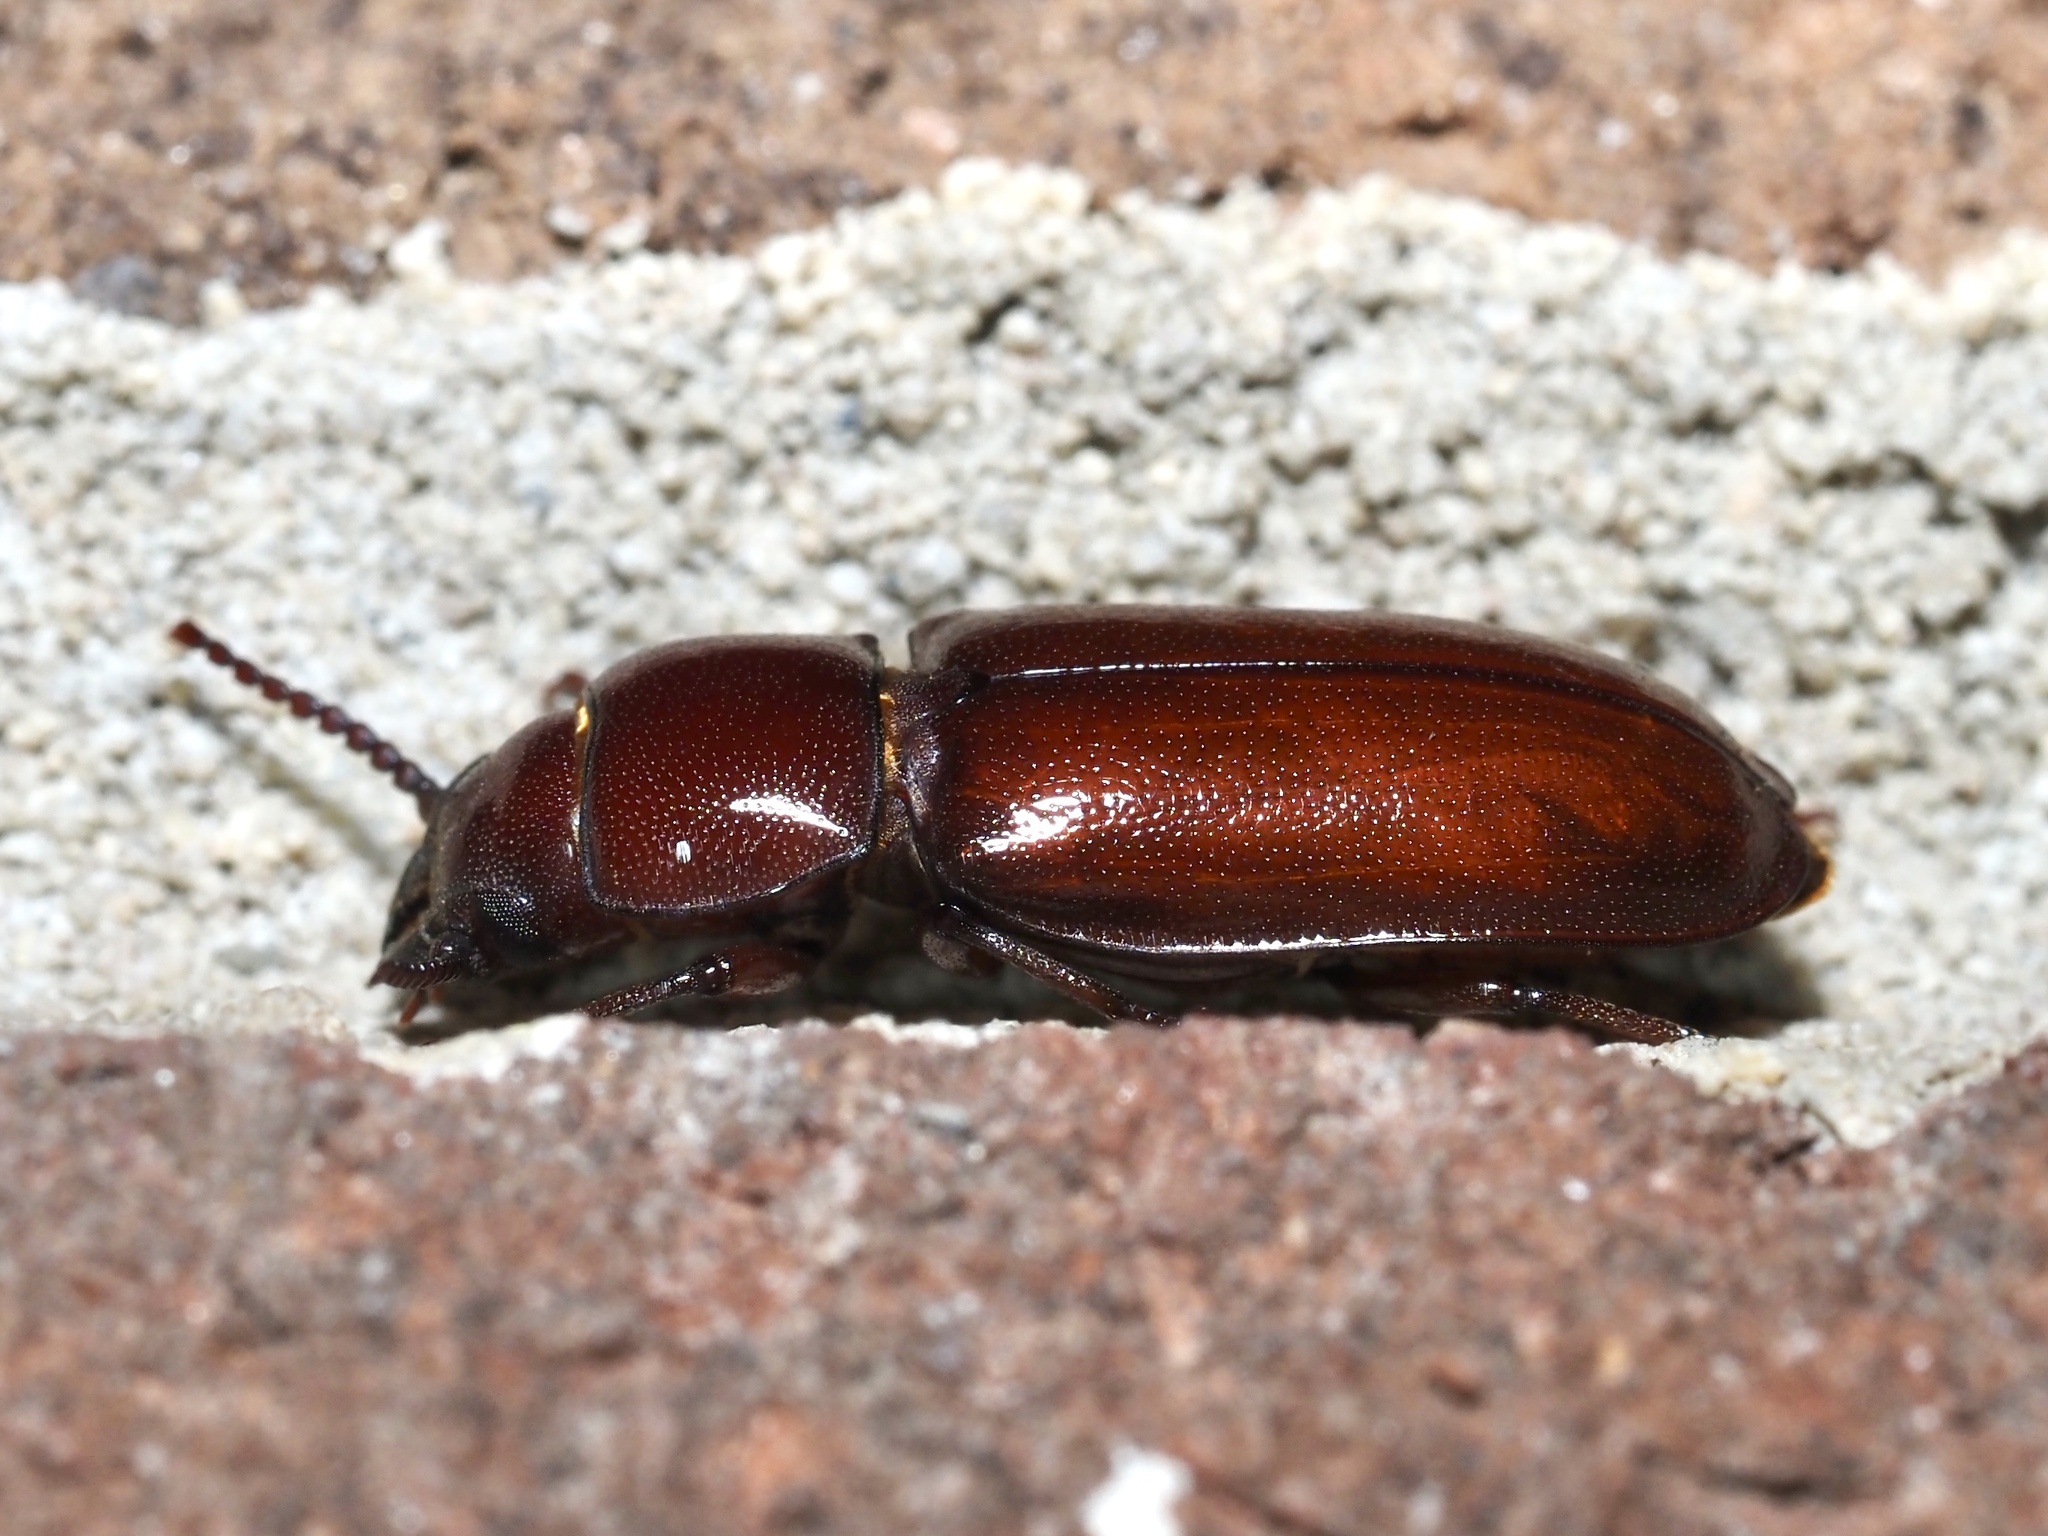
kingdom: Animalia
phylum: Arthropoda
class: Insecta
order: Coleoptera
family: Cerambycidae
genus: Neandra
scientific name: Neandra brunnea
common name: Pole borer
